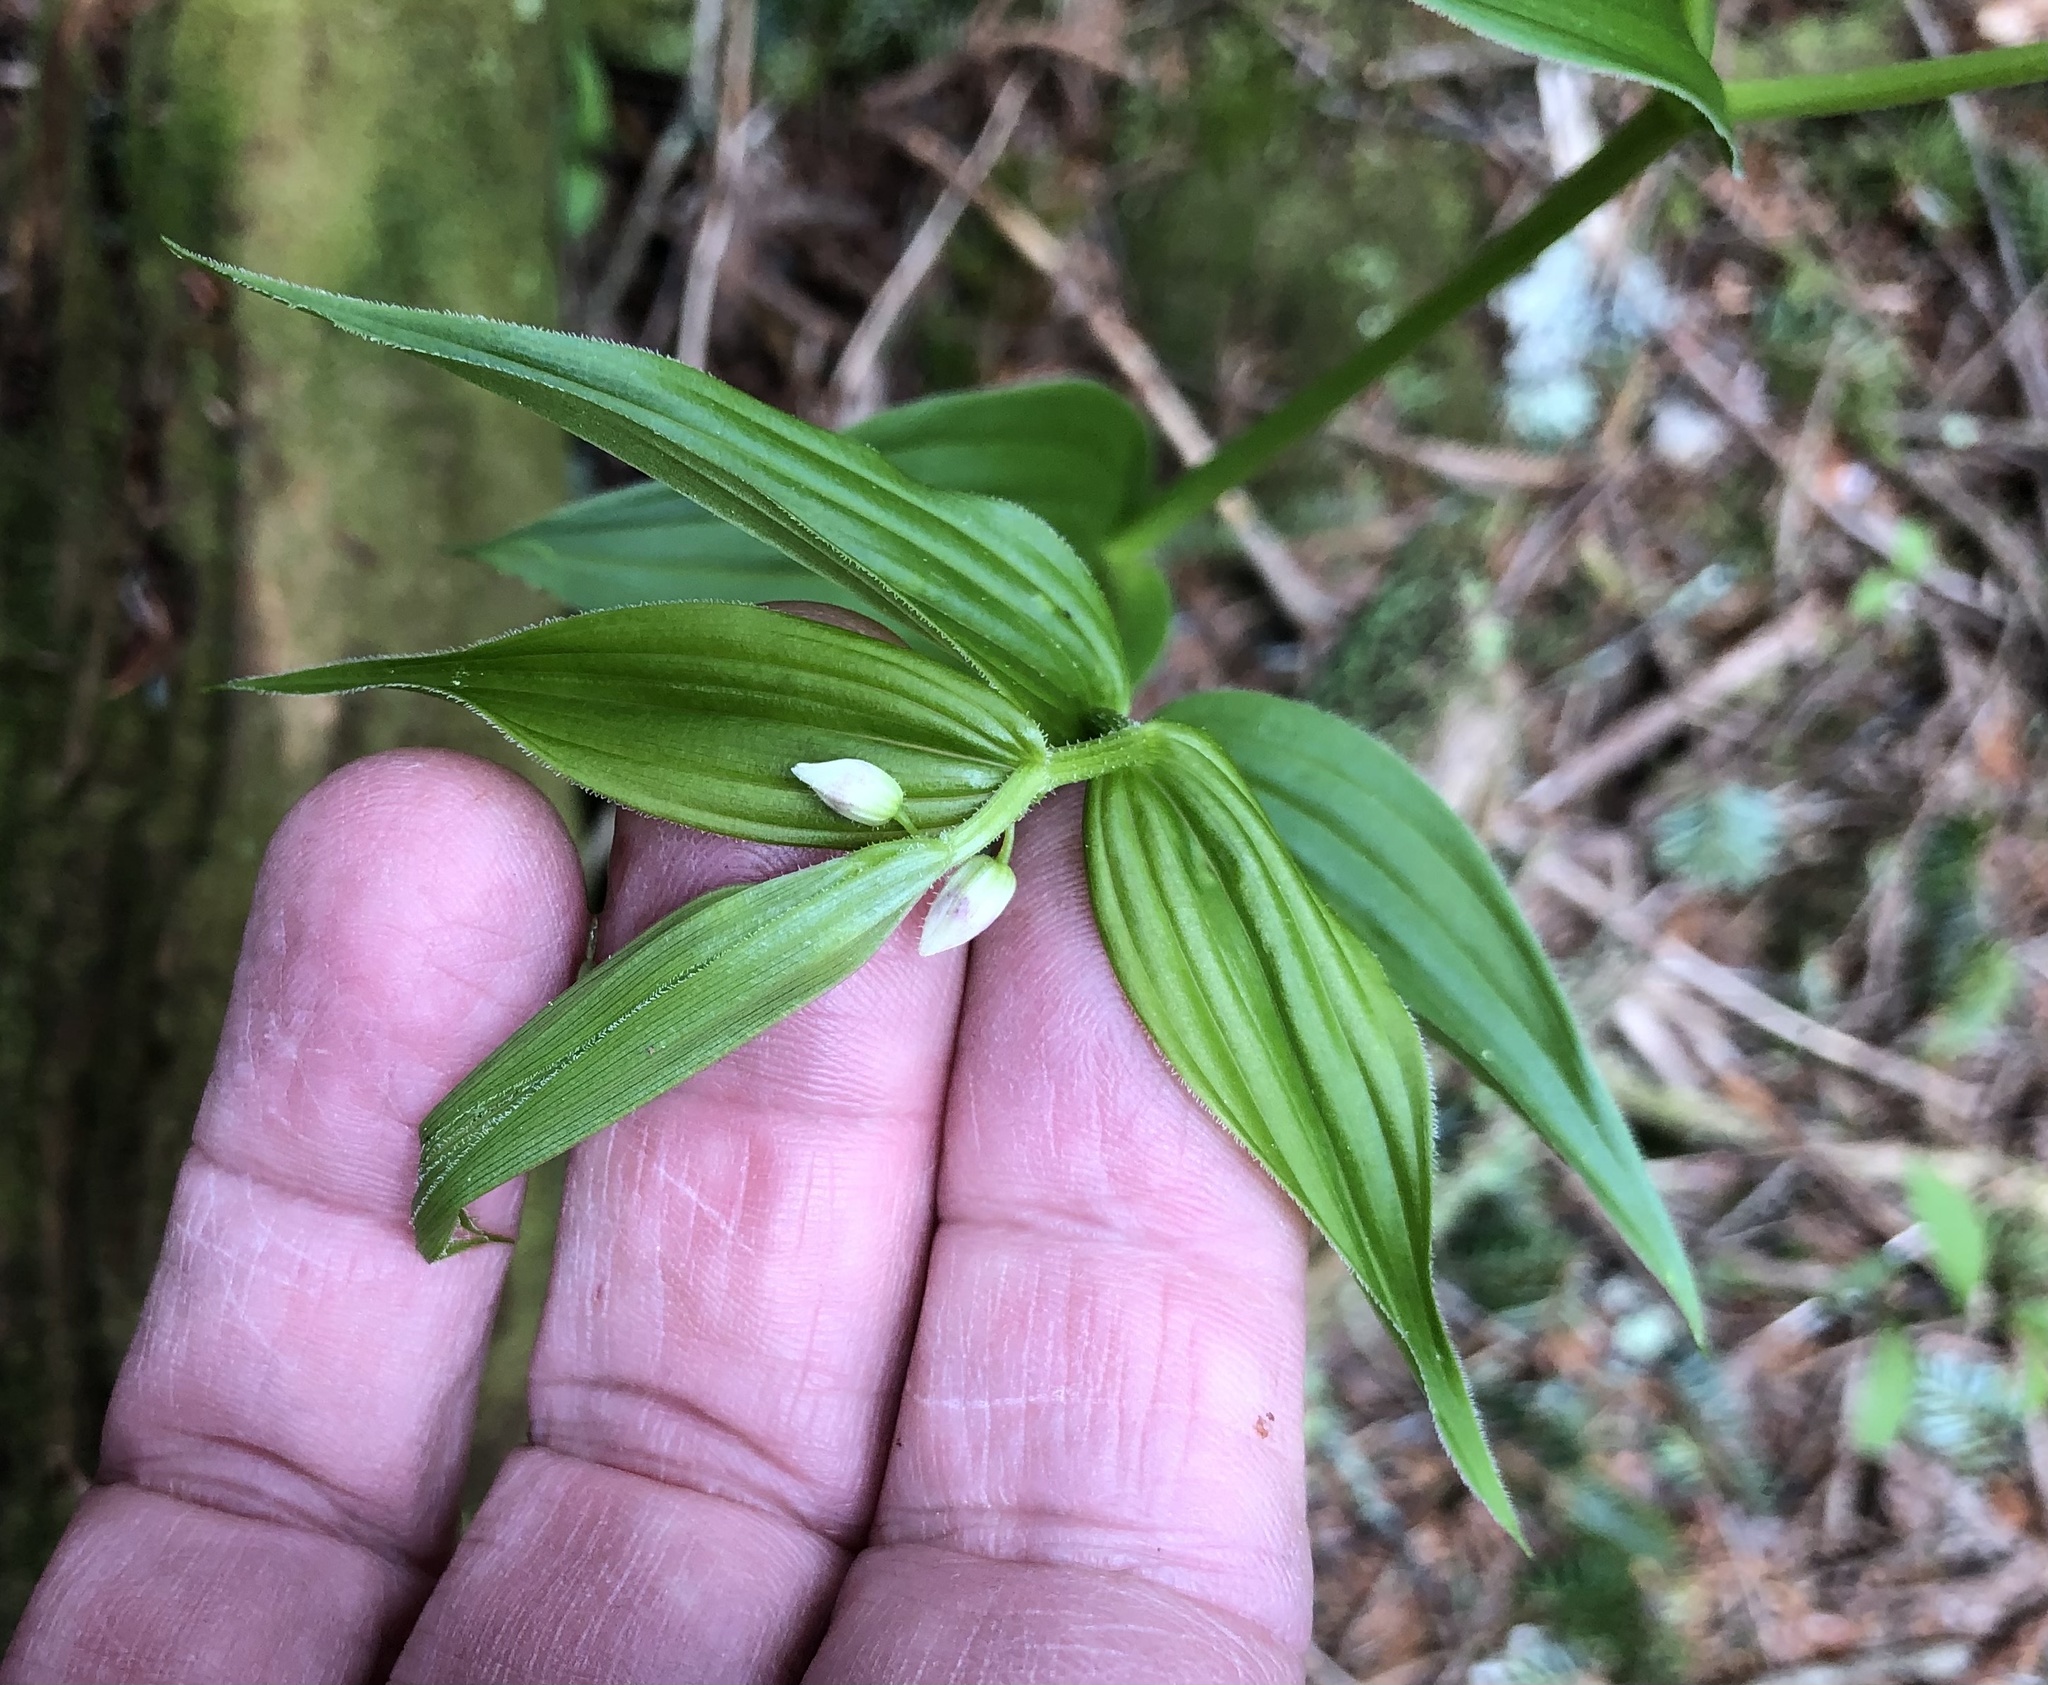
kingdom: Plantae
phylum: Tracheophyta
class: Liliopsida
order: Liliales
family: Liliaceae
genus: Streptopus
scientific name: Streptopus lanceolatus
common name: Rose mandarin
